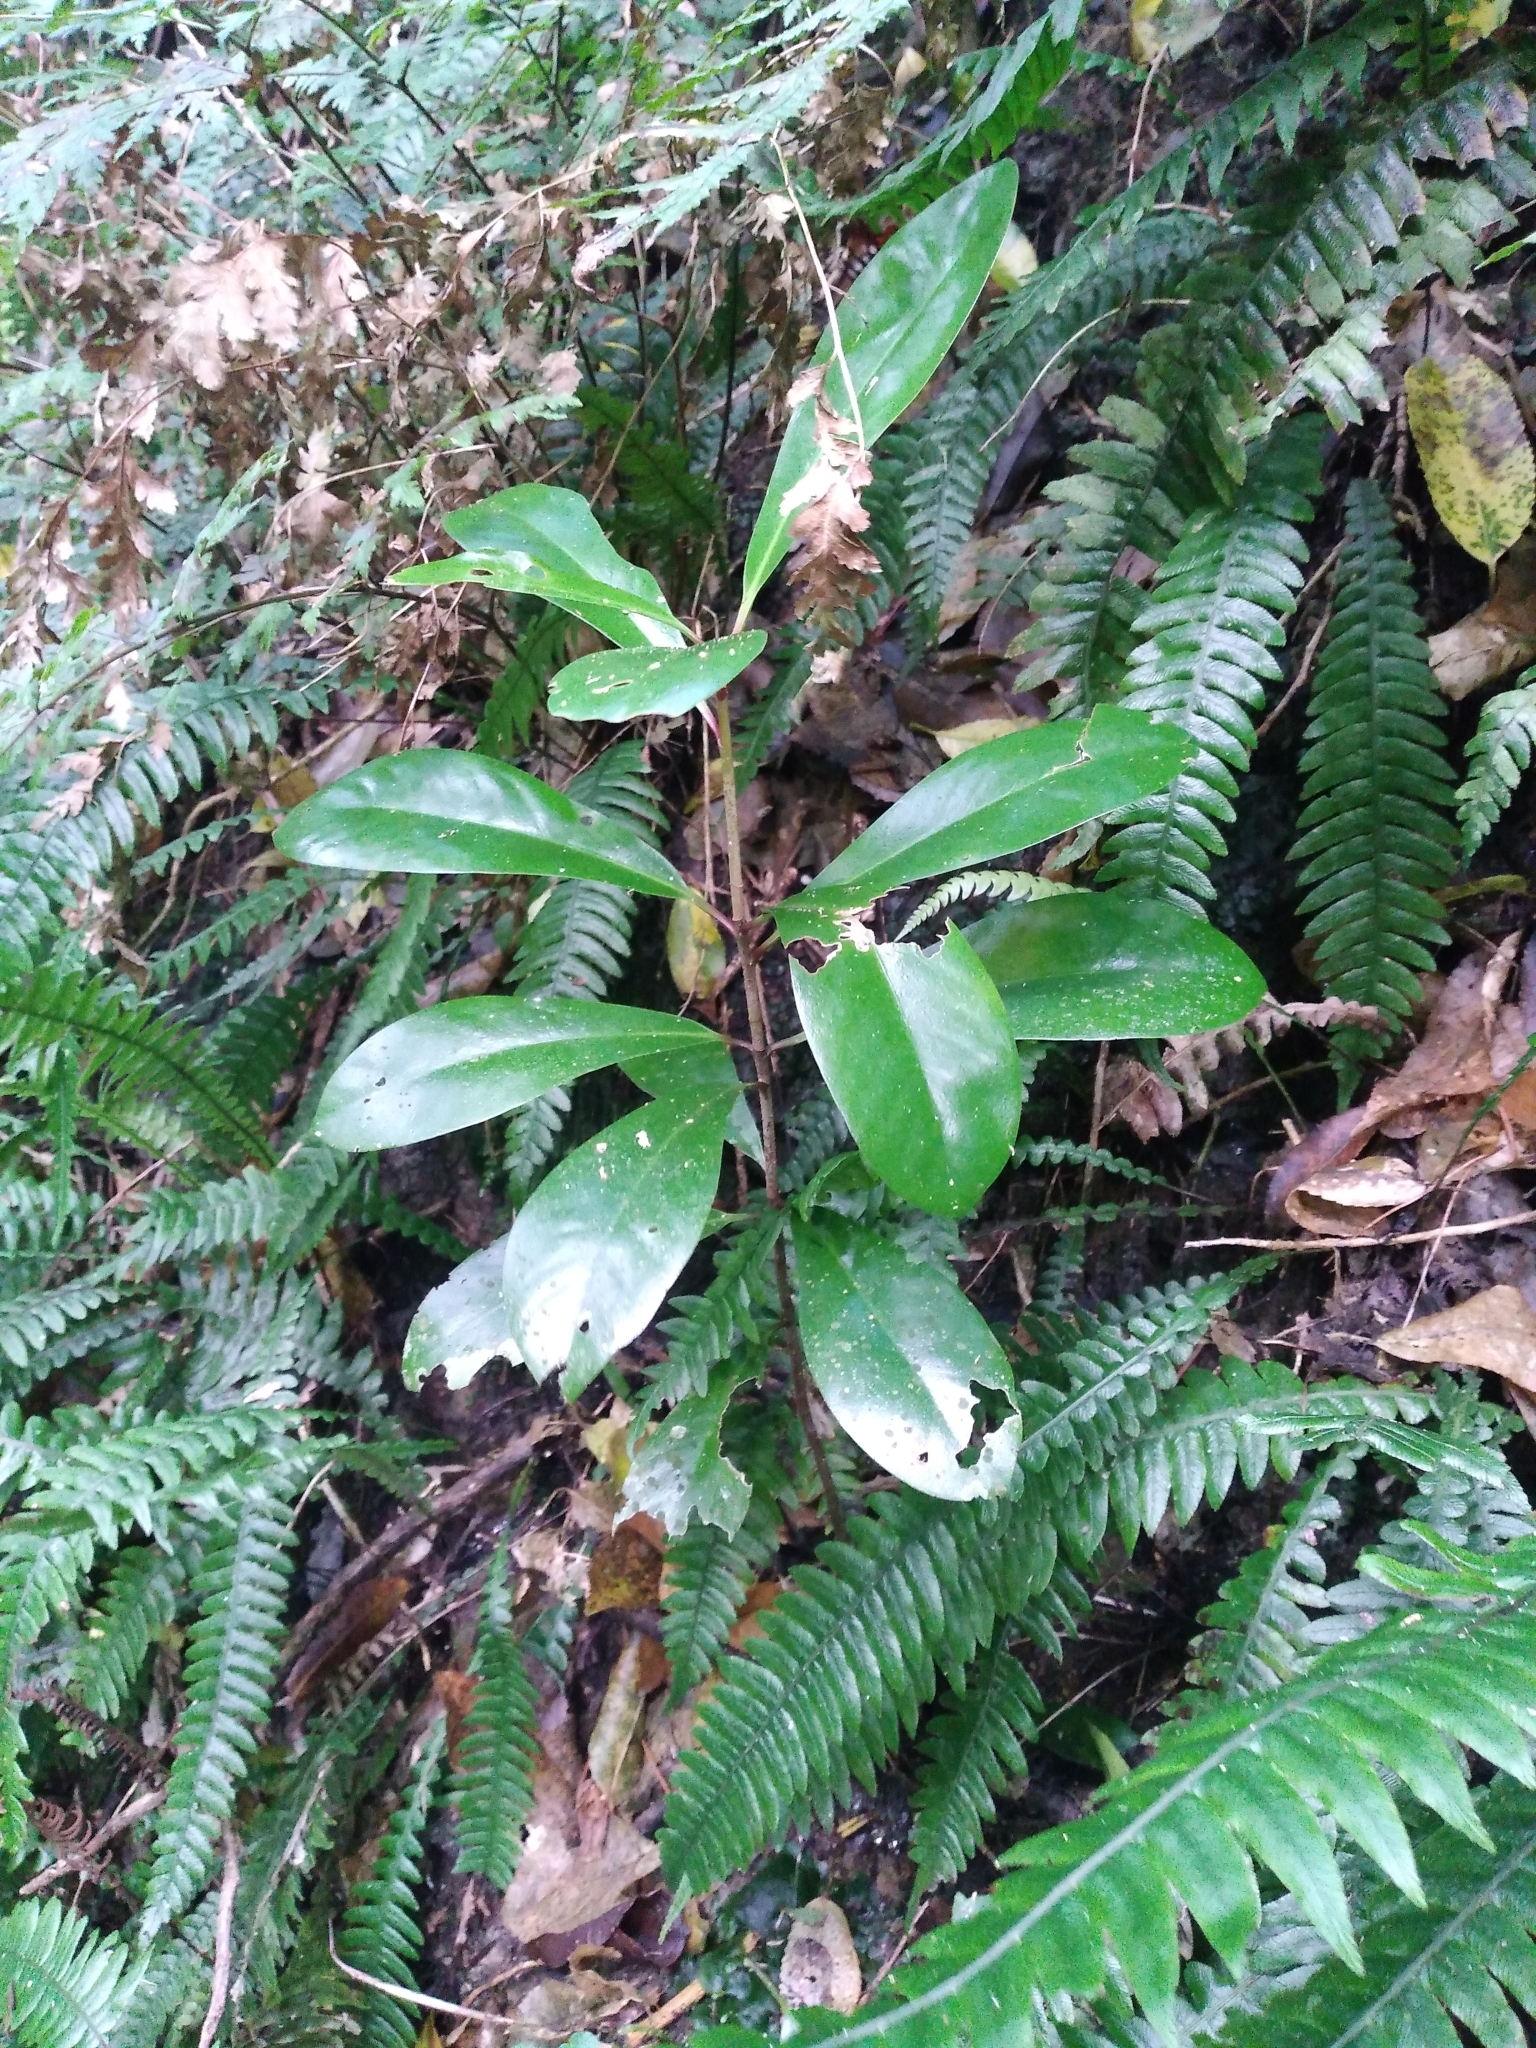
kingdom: Plantae
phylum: Tracheophyta
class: Magnoliopsida
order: Cucurbitales
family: Corynocarpaceae
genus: Corynocarpus
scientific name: Corynocarpus laevigatus
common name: New zealand laurel
